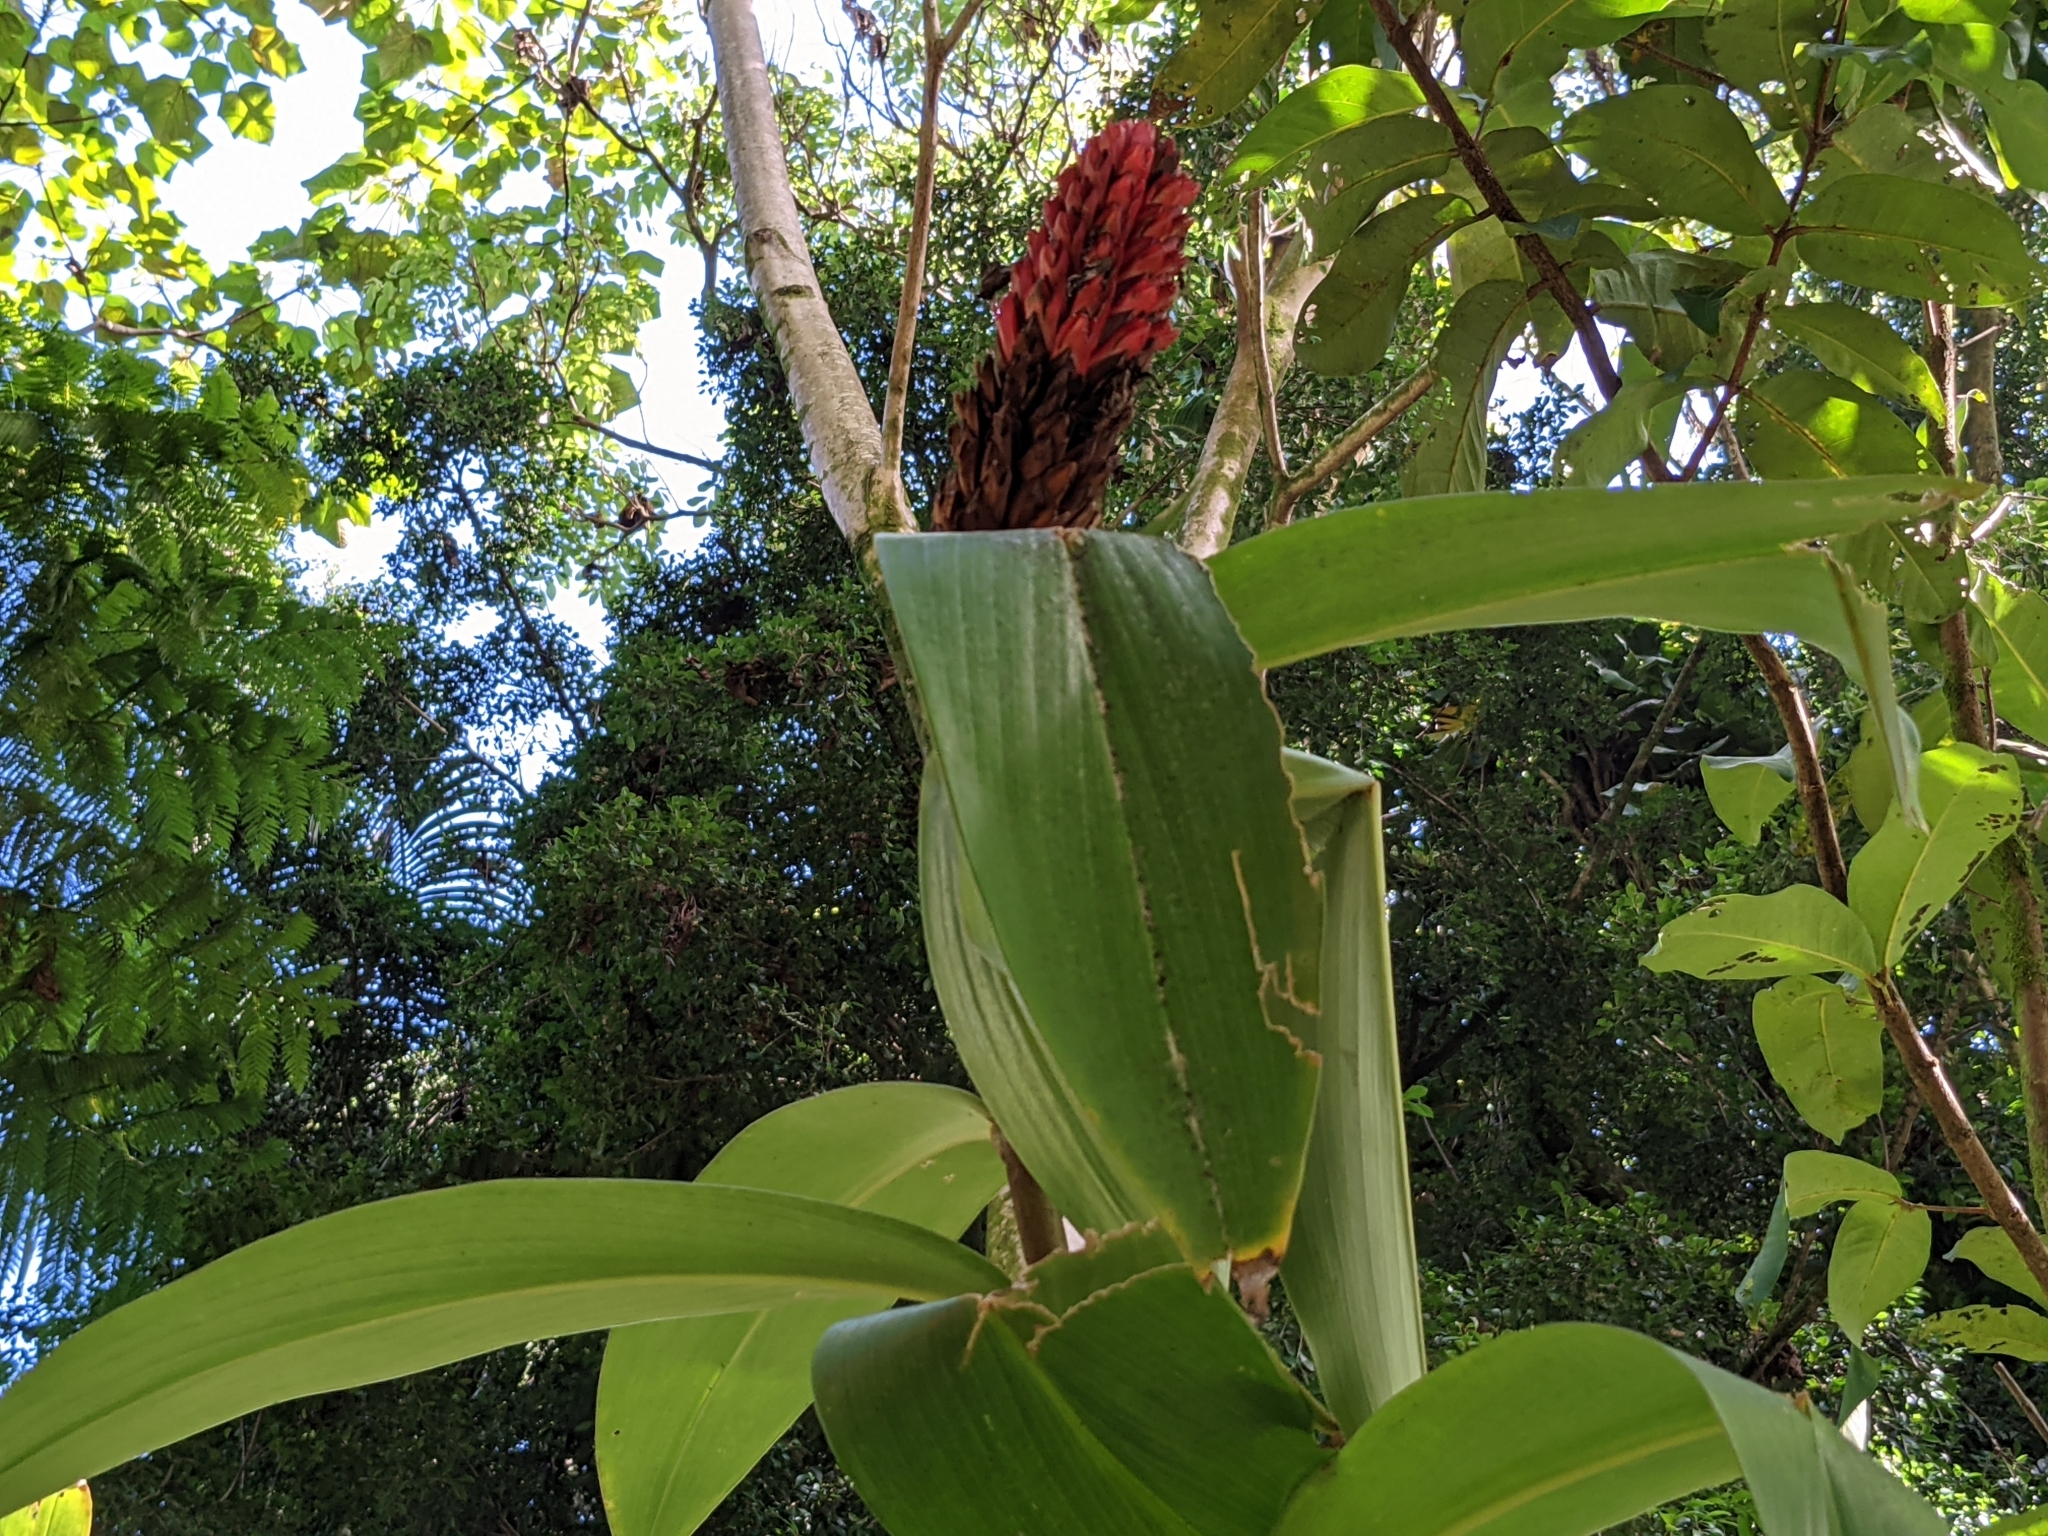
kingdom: Plantae
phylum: Tracheophyta
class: Liliopsida
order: Zingiberales
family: Costaceae
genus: Hellenia
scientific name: Hellenia speciosa
